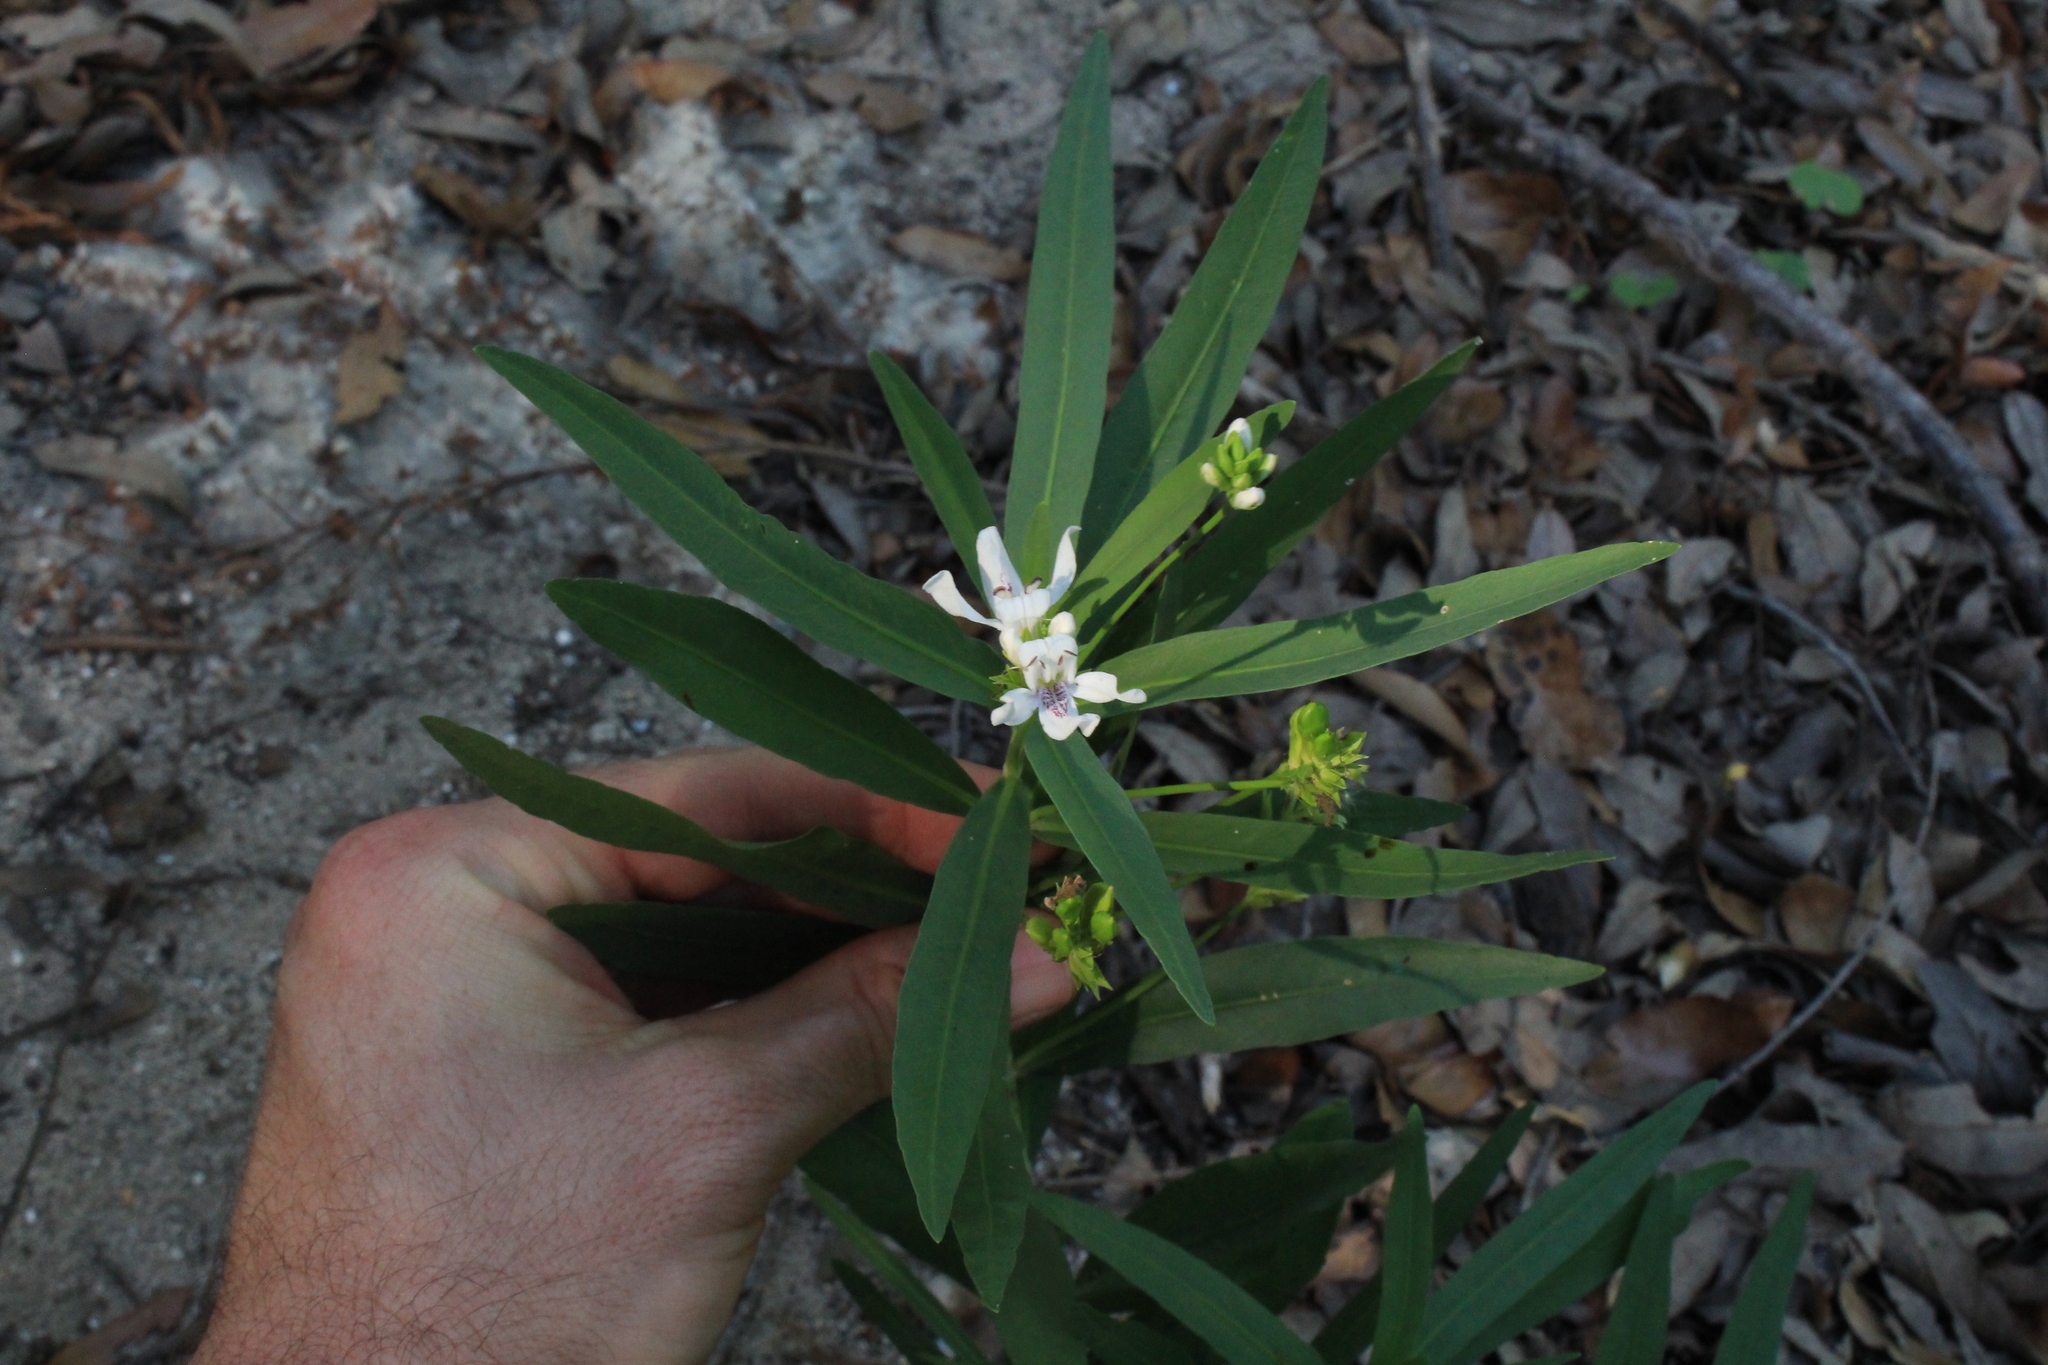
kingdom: Plantae
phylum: Tracheophyta
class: Magnoliopsida
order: Lamiales
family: Acanthaceae
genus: Dianthera
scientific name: Dianthera americana
